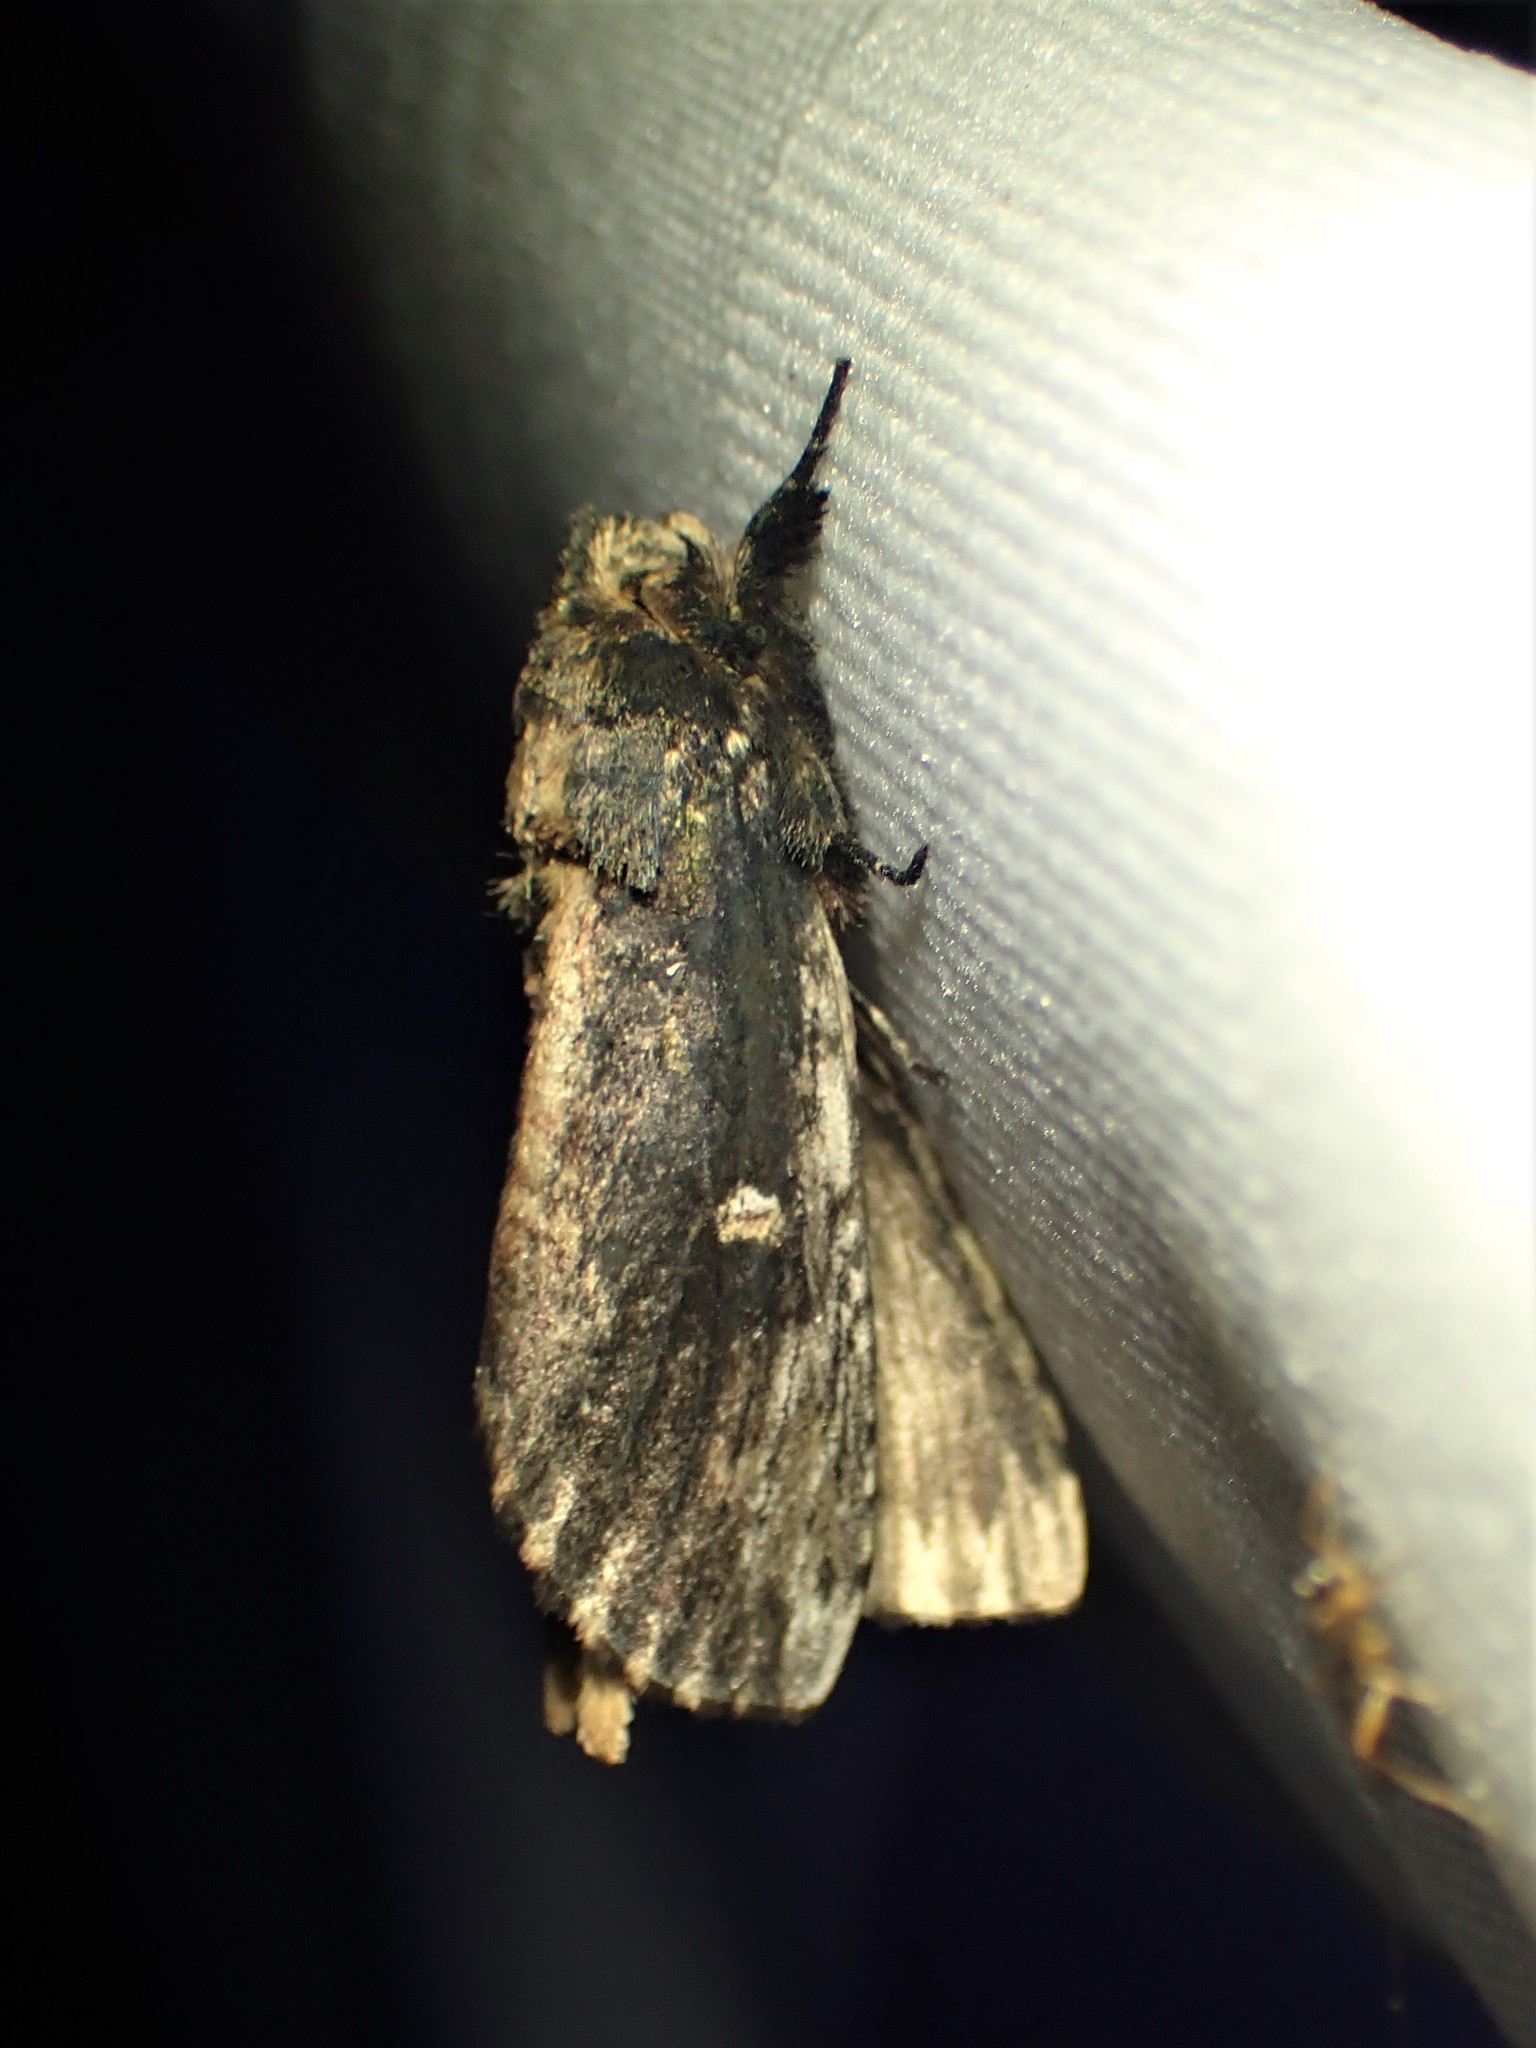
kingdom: Animalia
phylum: Arthropoda
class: Insecta
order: Lepidoptera
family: Notodontidae
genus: Schizura
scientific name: Schizura ipomaeae
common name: Morning-glory prominent
